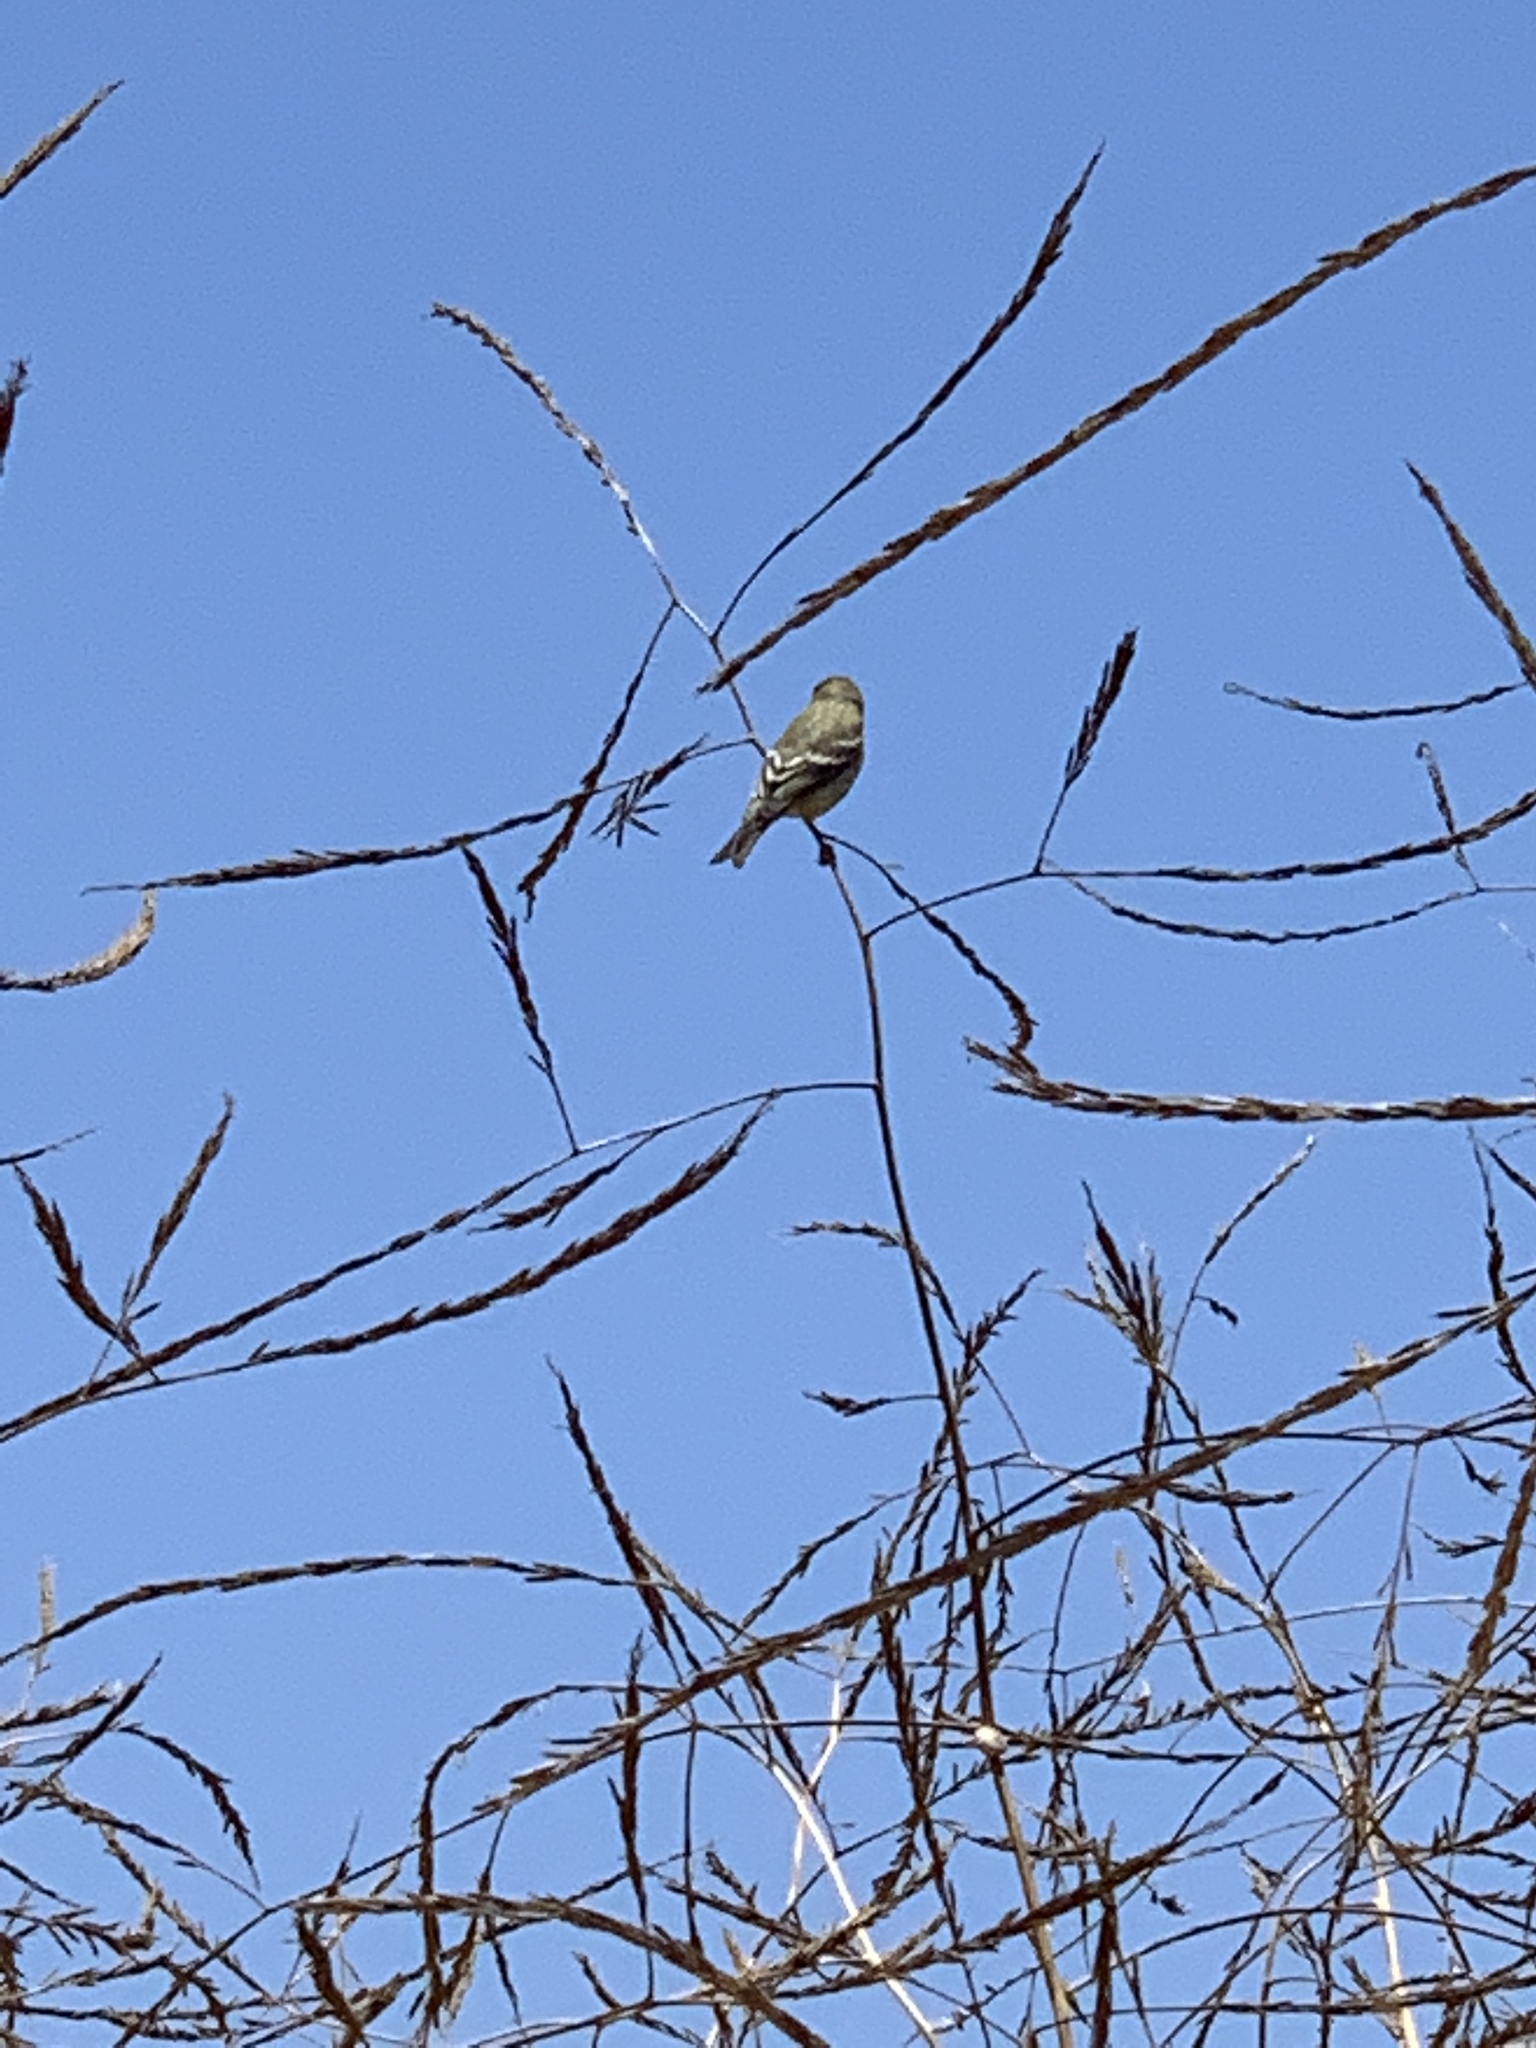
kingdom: Animalia
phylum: Chordata
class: Aves
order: Passeriformes
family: Fringillidae
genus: Spinus
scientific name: Spinus psaltria
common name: Lesser goldfinch
